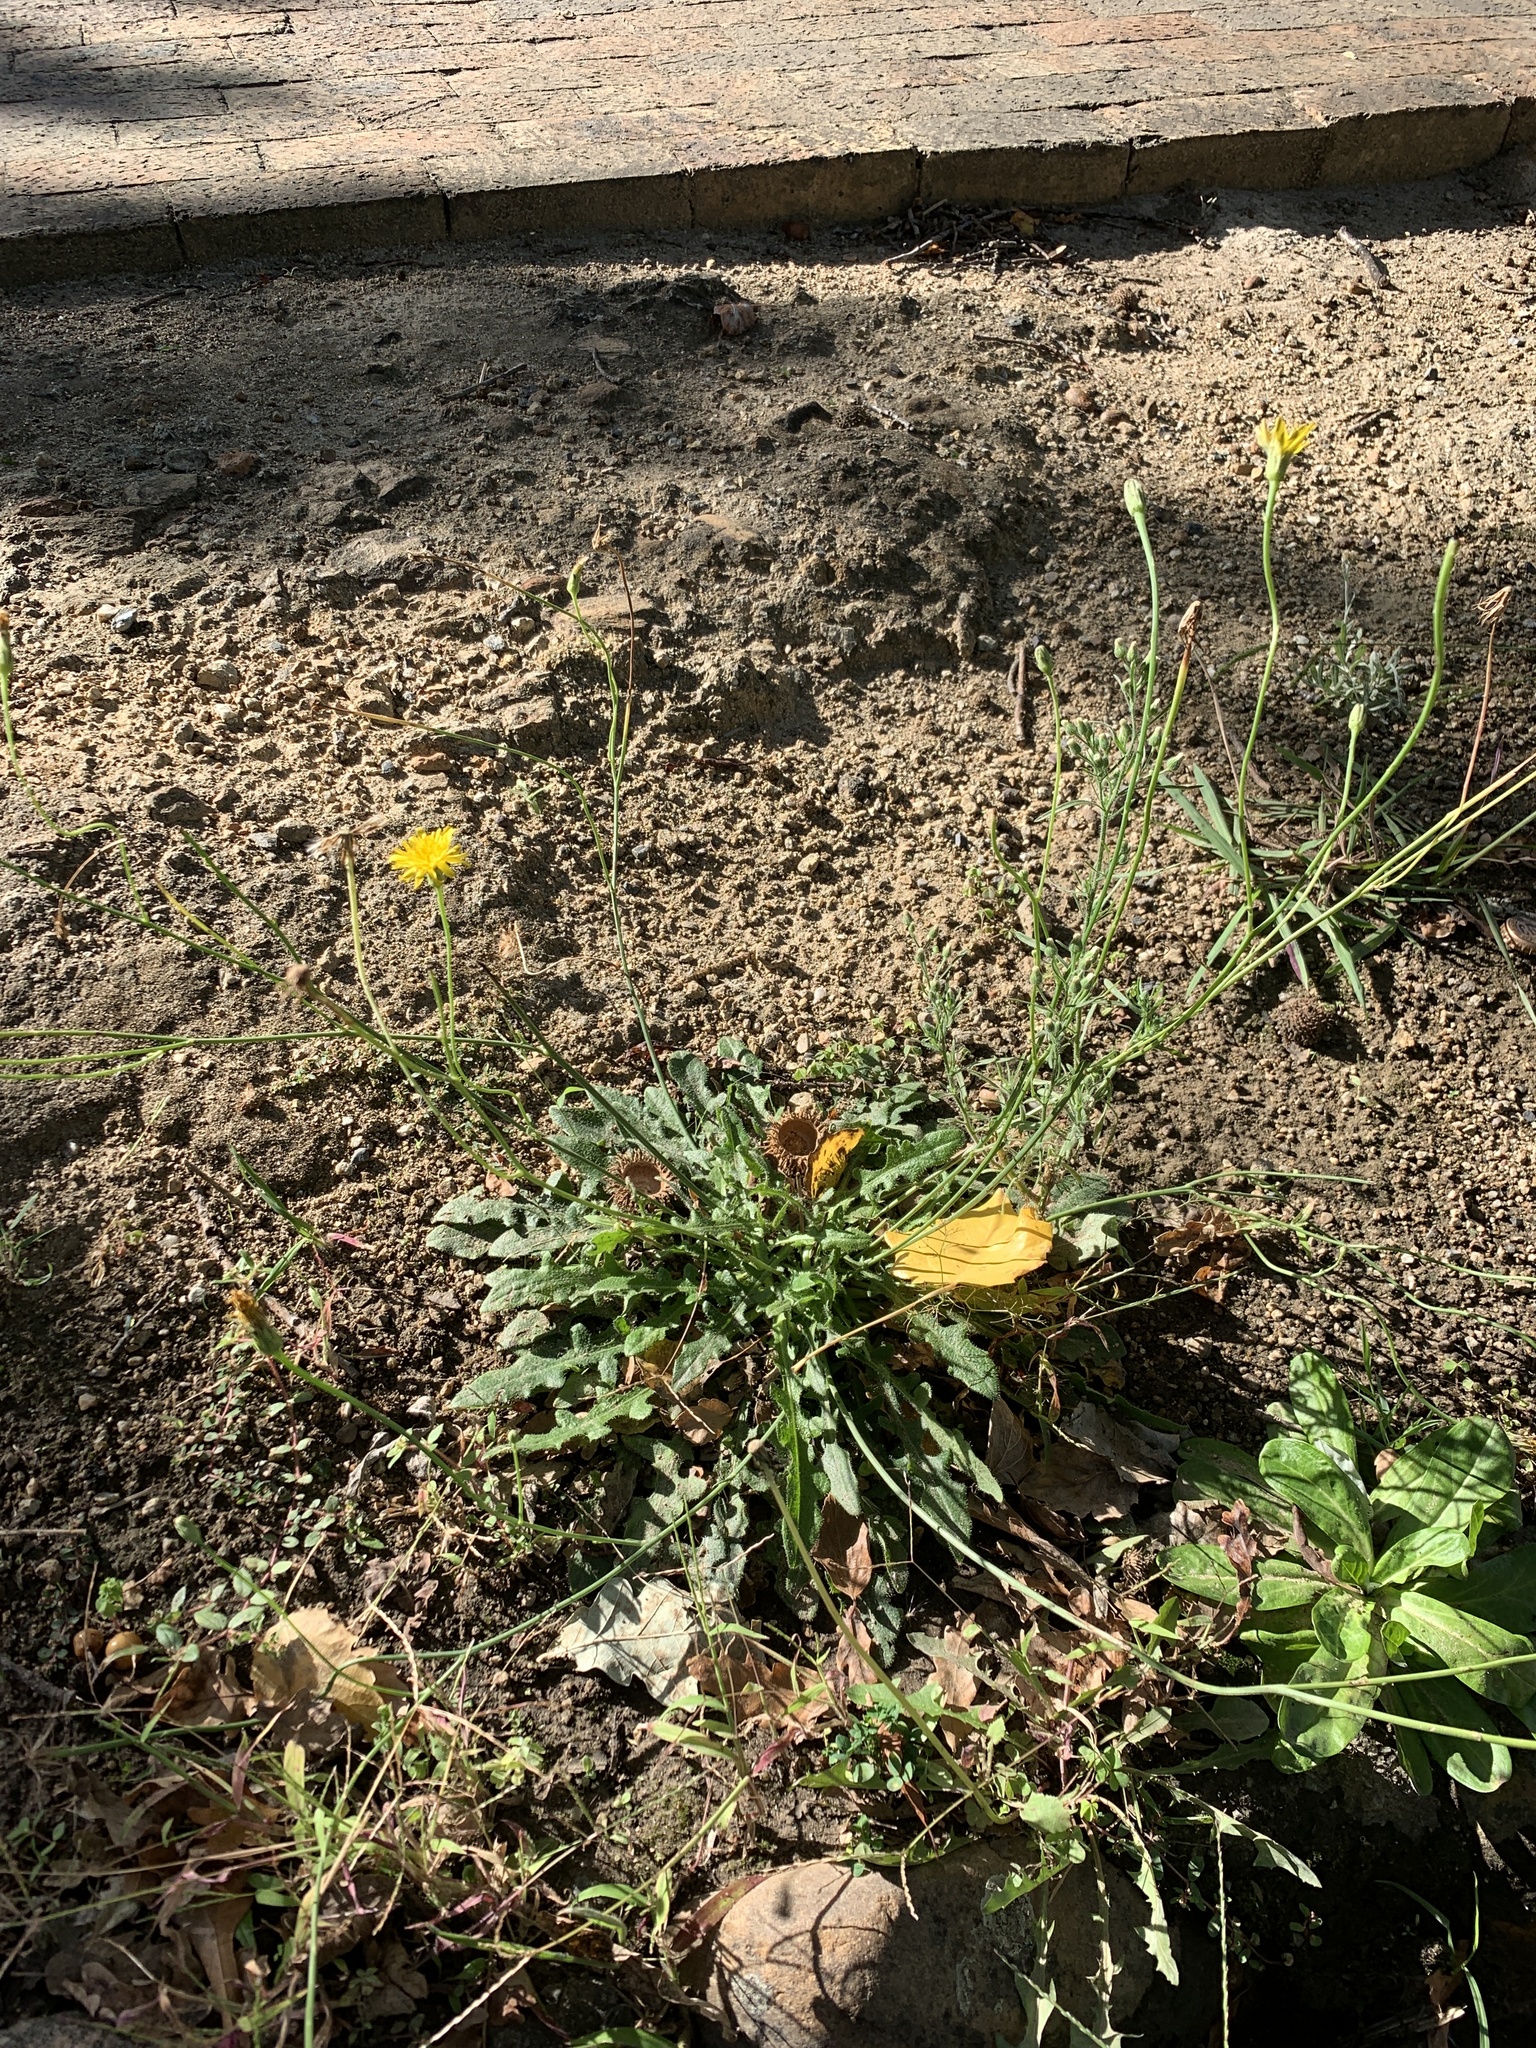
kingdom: Plantae
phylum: Tracheophyta
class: Magnoliopsida
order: Asterales
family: Asteraceae
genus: Hypochaeris
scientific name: Hypochaeris radicata
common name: Flatweed
